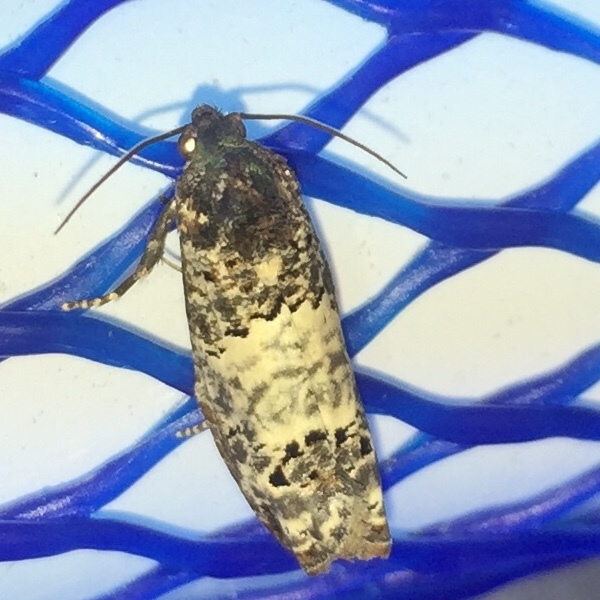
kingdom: Animalia
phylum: Arthropoda
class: Insecta
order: Lepidoptera
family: Tortricidae
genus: Ecdytolopha
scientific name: Ecdytolopha insiticiana
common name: Locust twig borer moth
